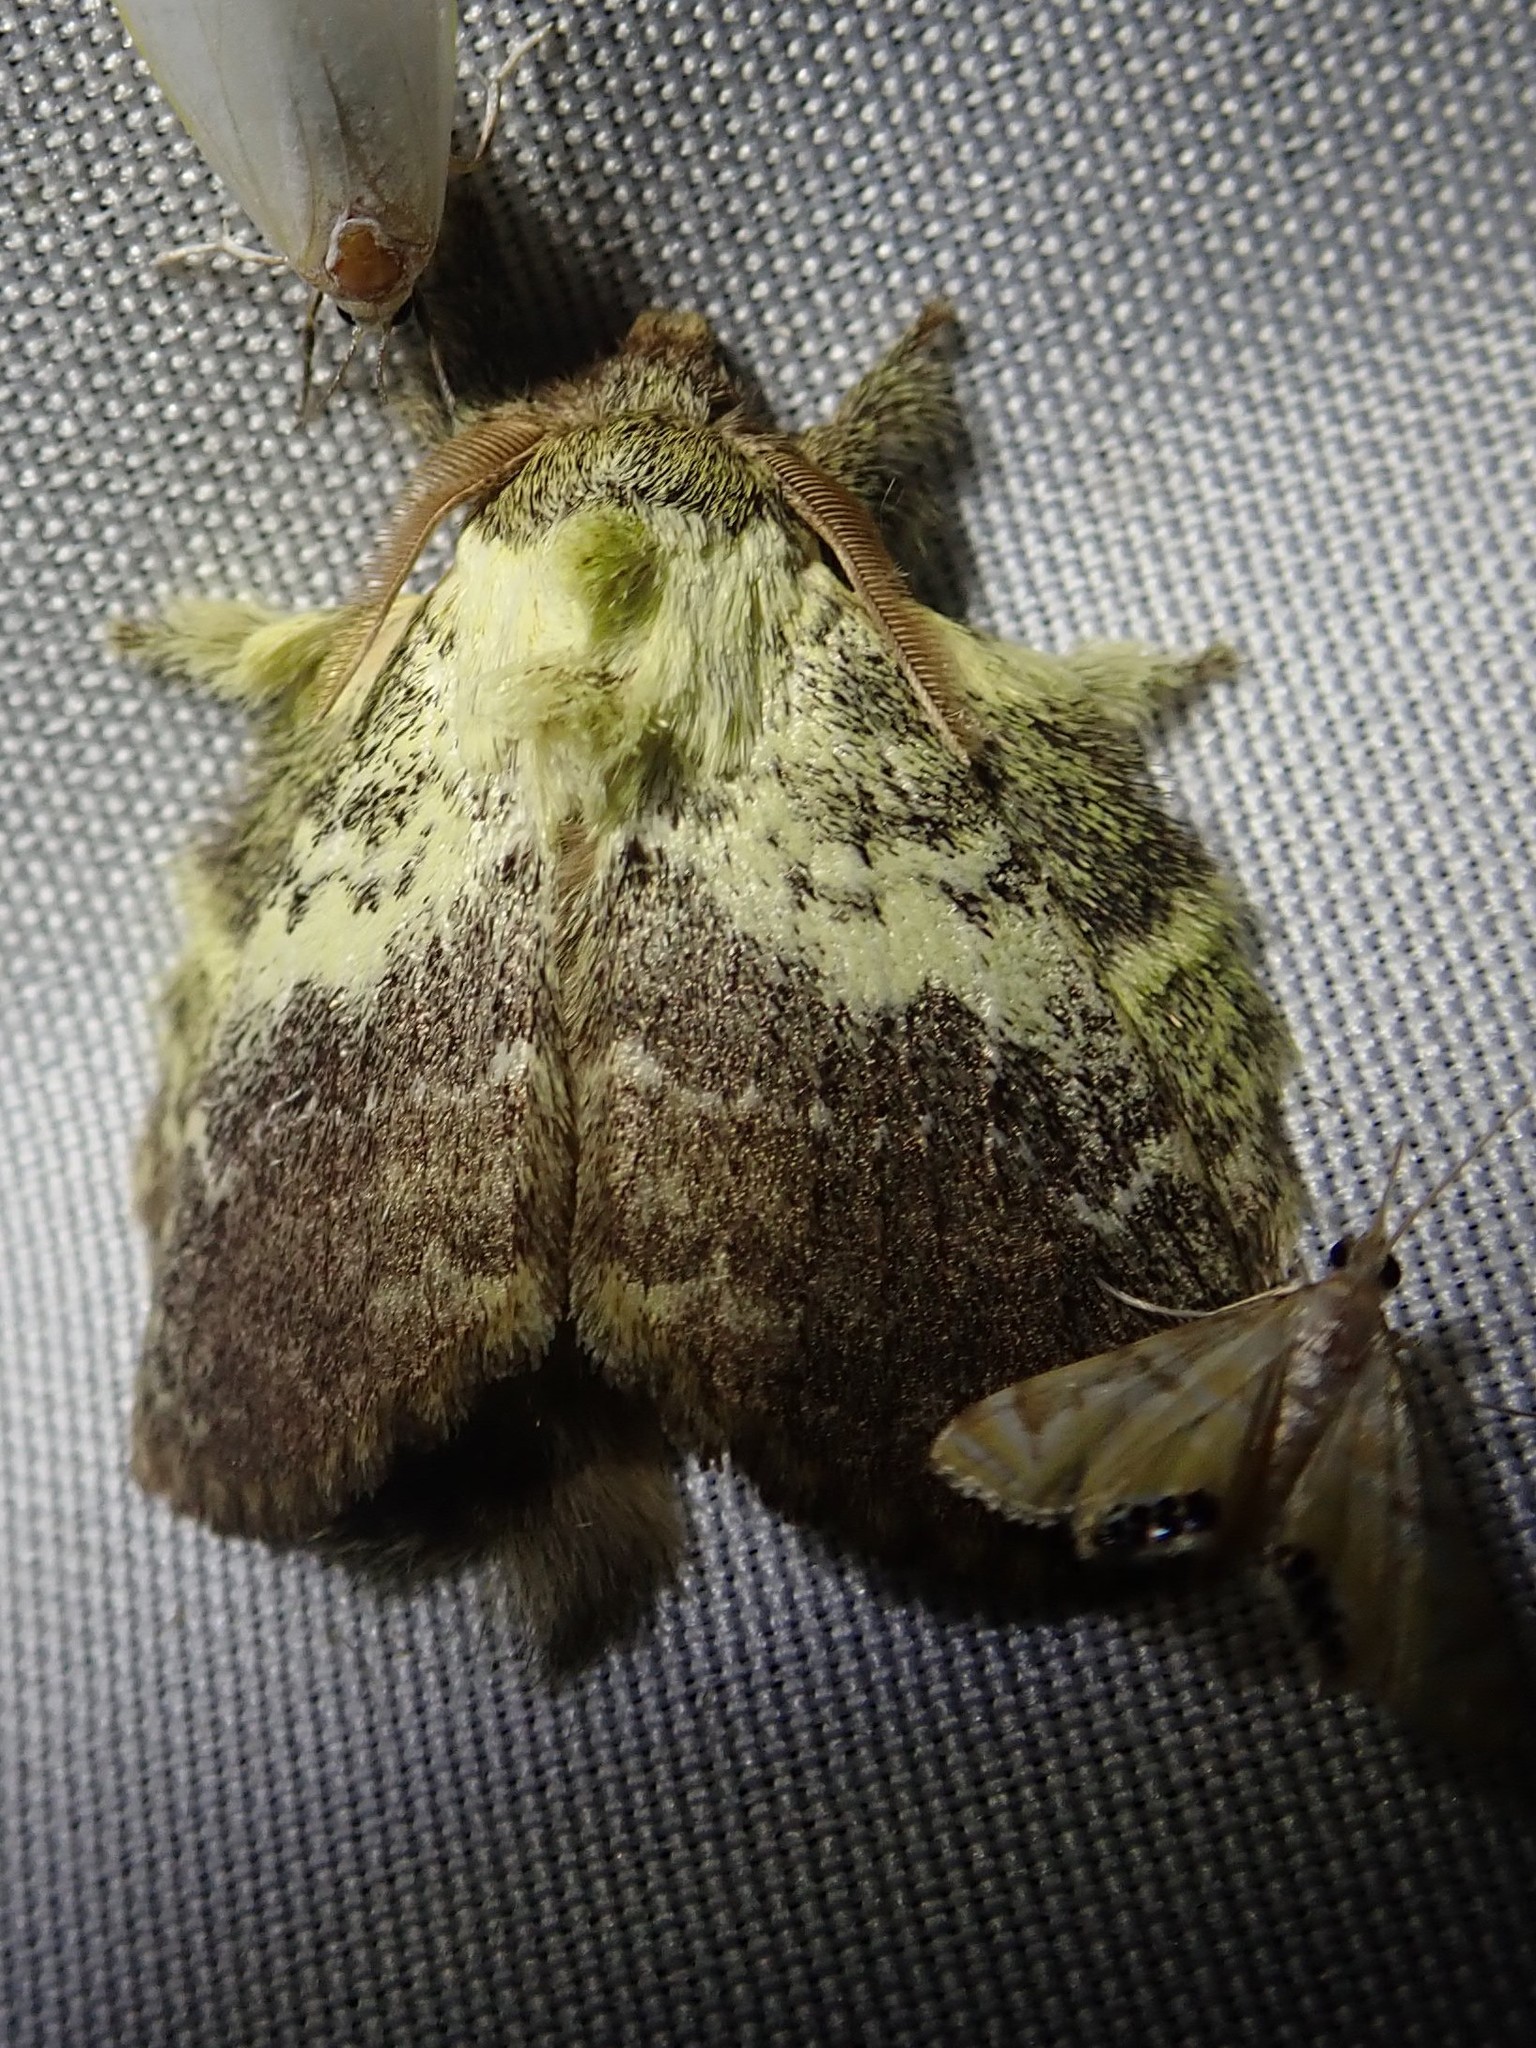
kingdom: Animalia
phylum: Arthropoda
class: Insecta
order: Lepidoptera
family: Lasiocampidae
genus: Euglyphis
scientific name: Euglyphis primola
